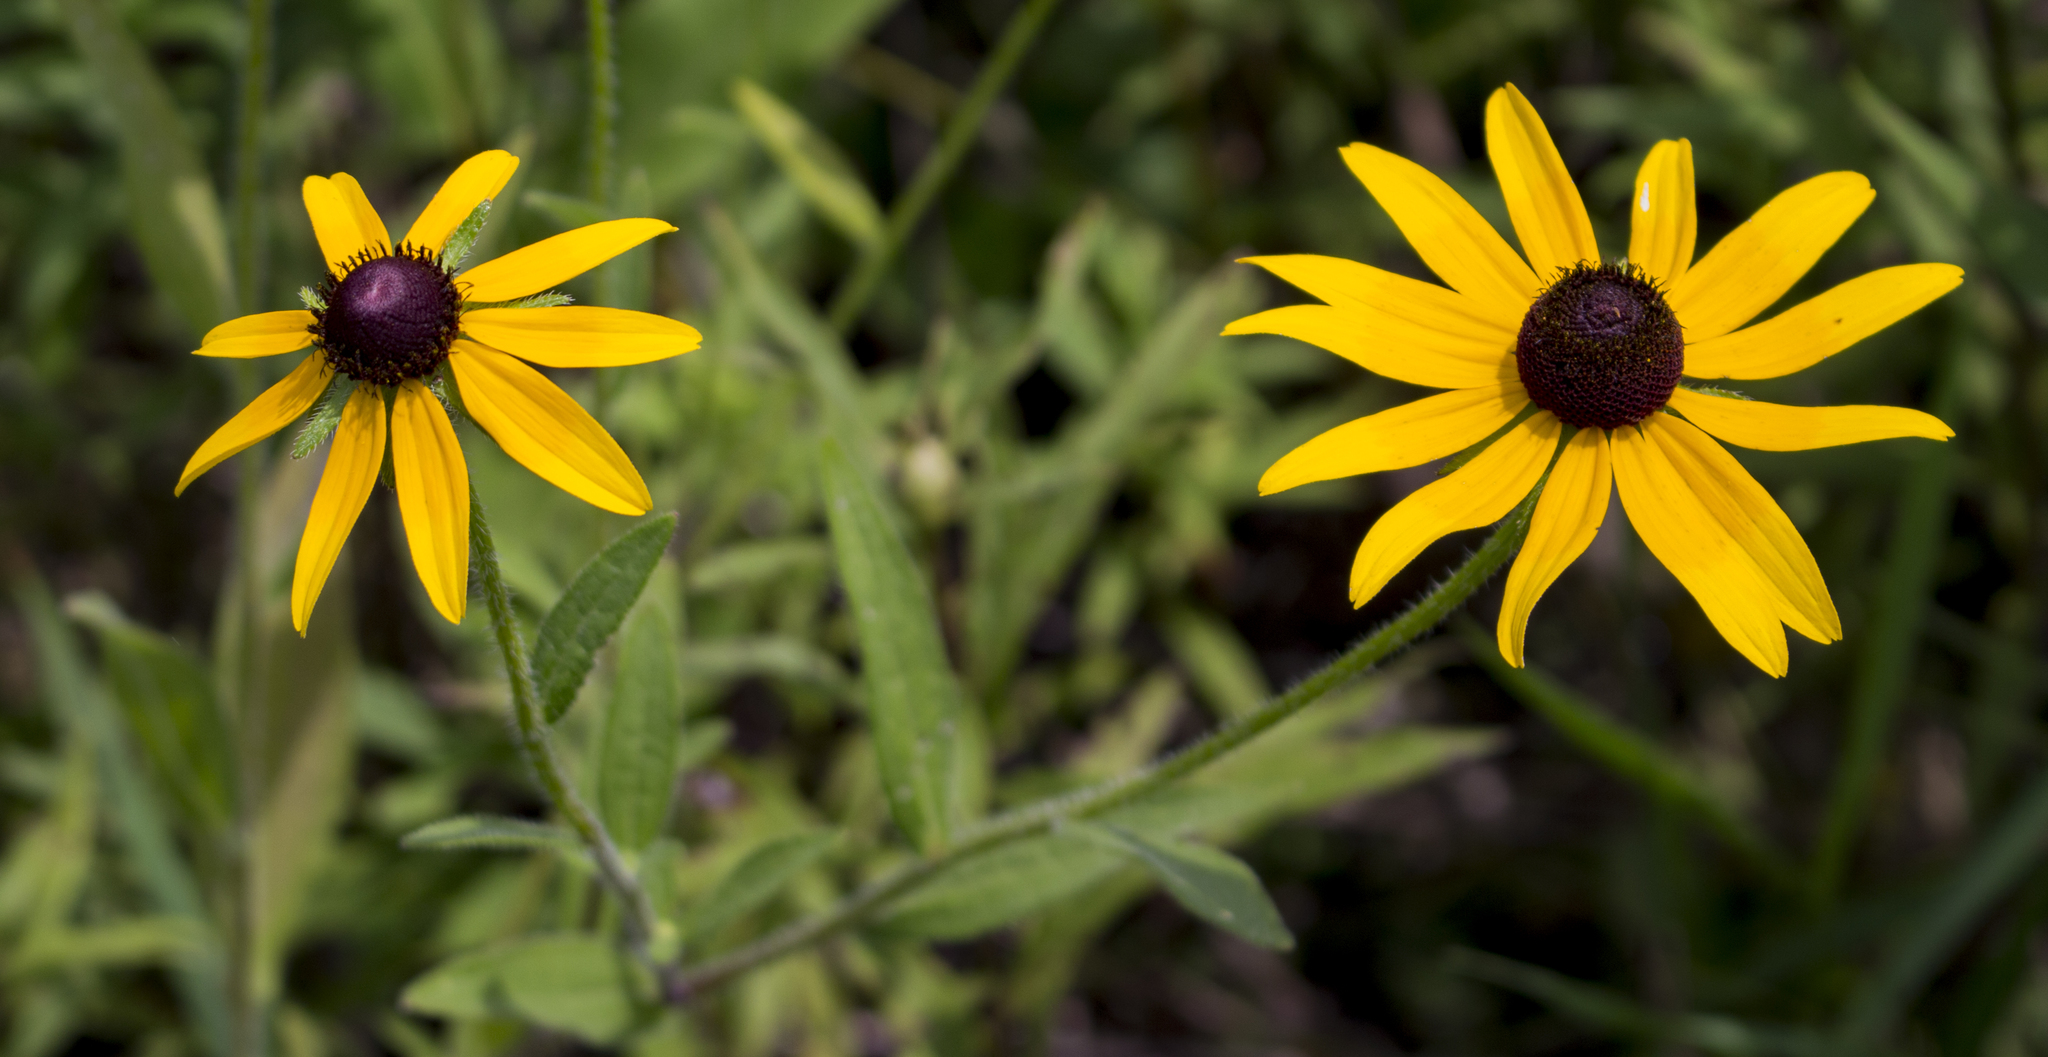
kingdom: Plantae
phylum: Tracheophyta
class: Magnoliopsida
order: Asterales
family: Asteraceae
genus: Rudbeckia
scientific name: Rudbeckia hirta
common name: Black-eyed-susan
